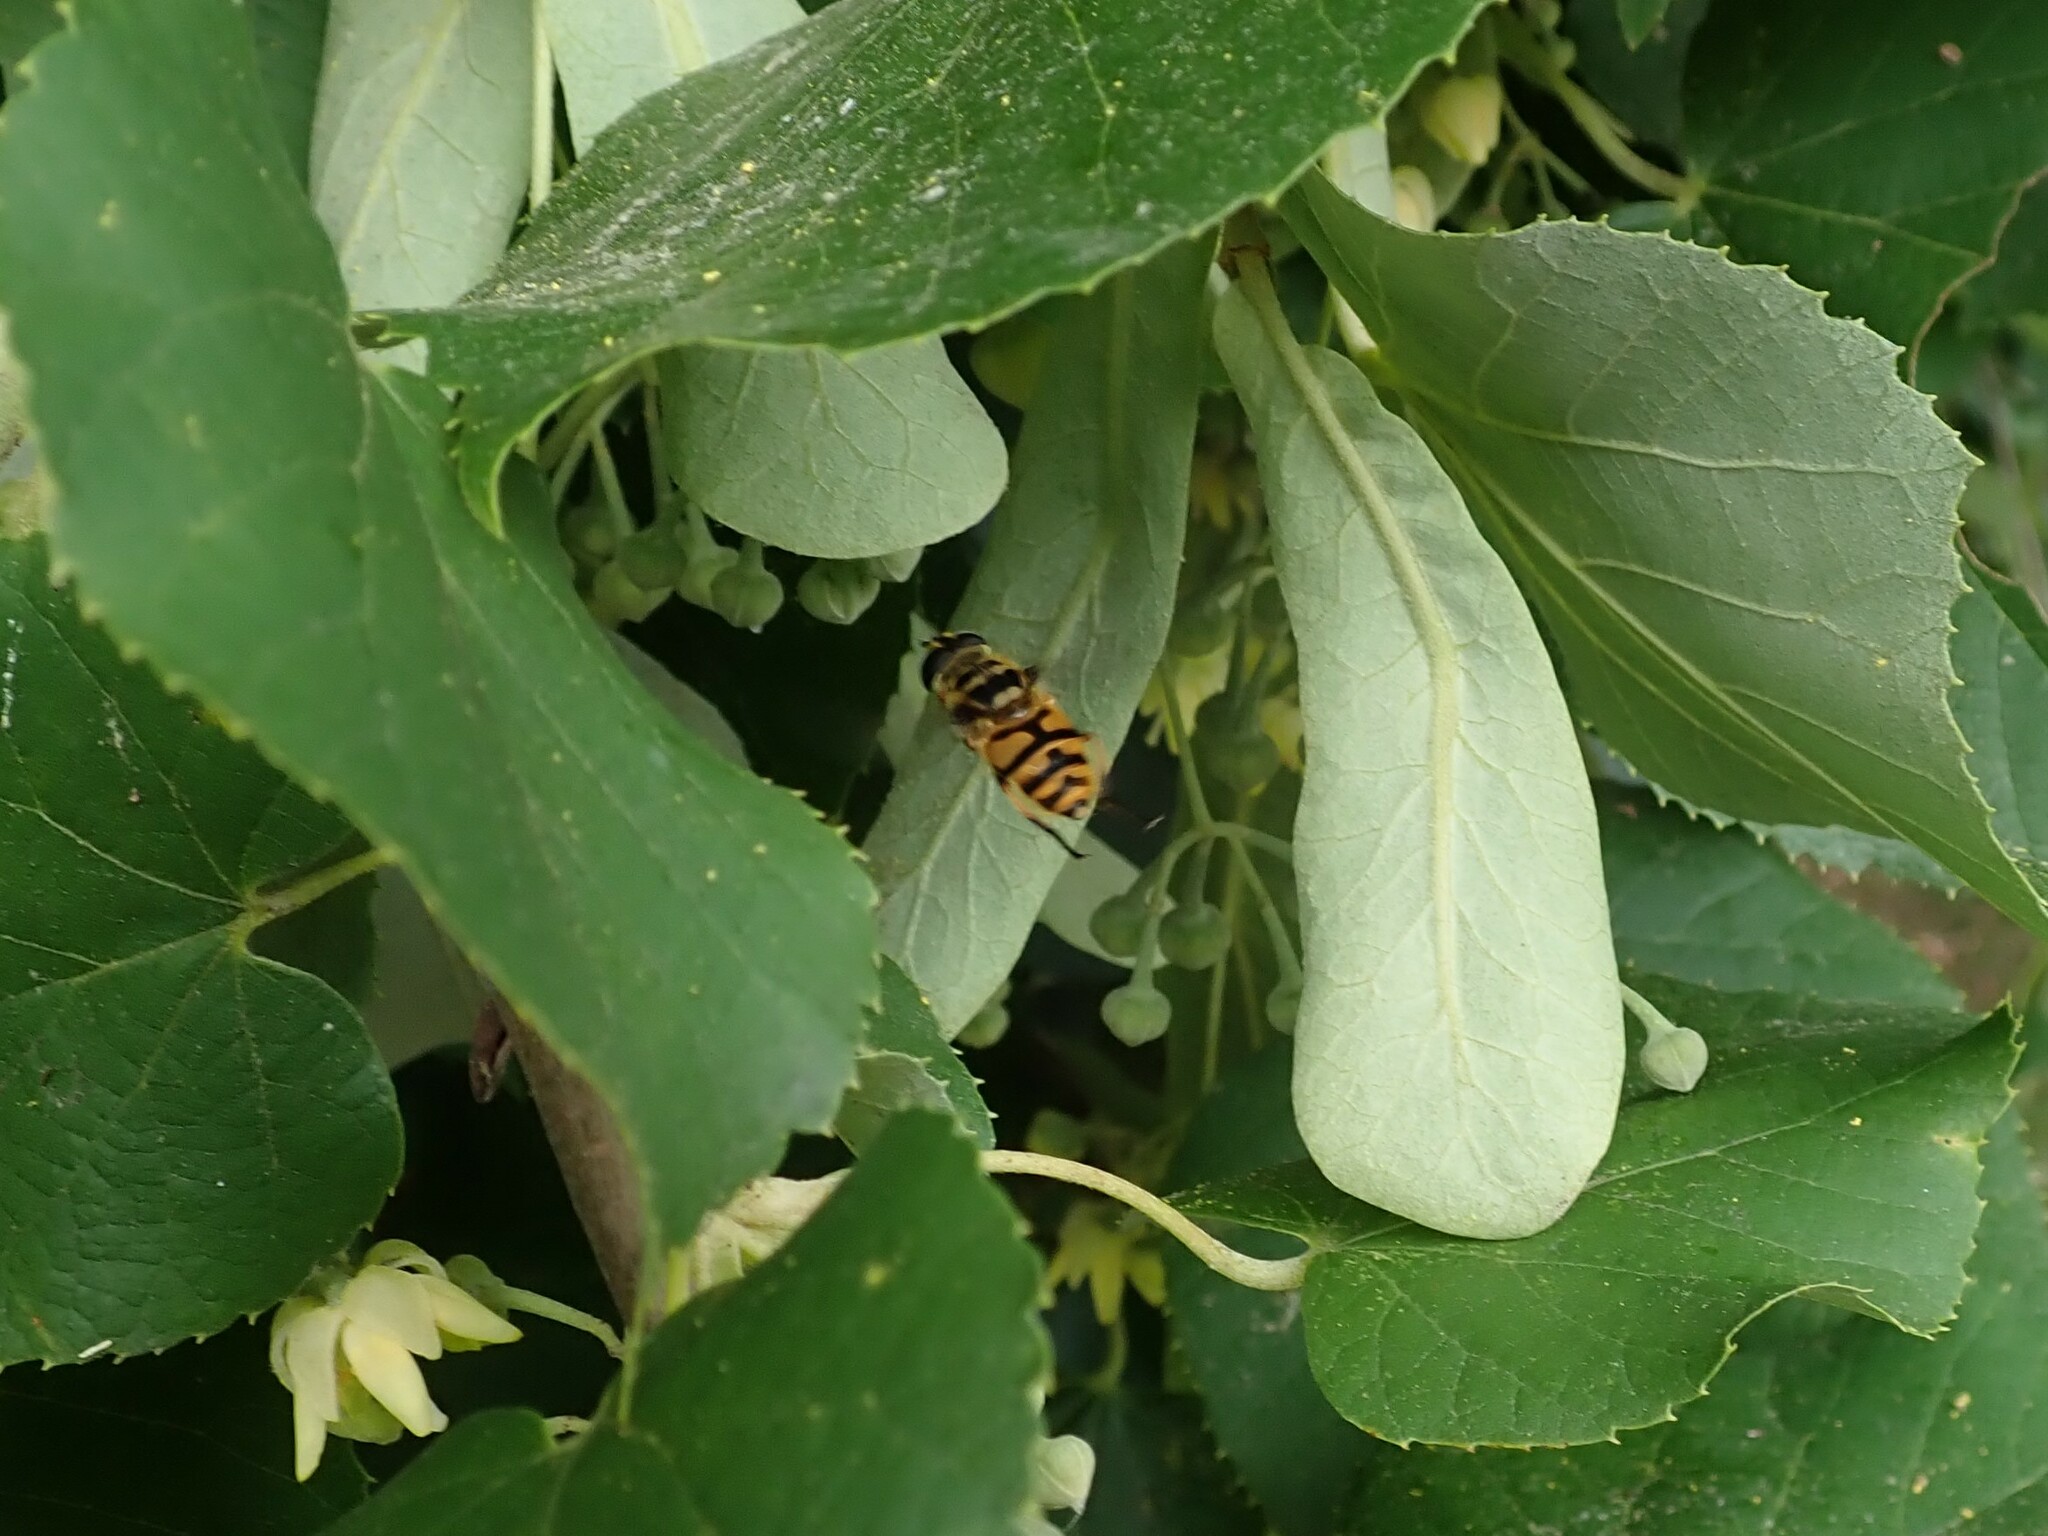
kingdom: Animalia
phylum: Arthropoda
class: Insecta
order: Diptera
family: Syrphidae
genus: Myathropa
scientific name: Myathropa florea
